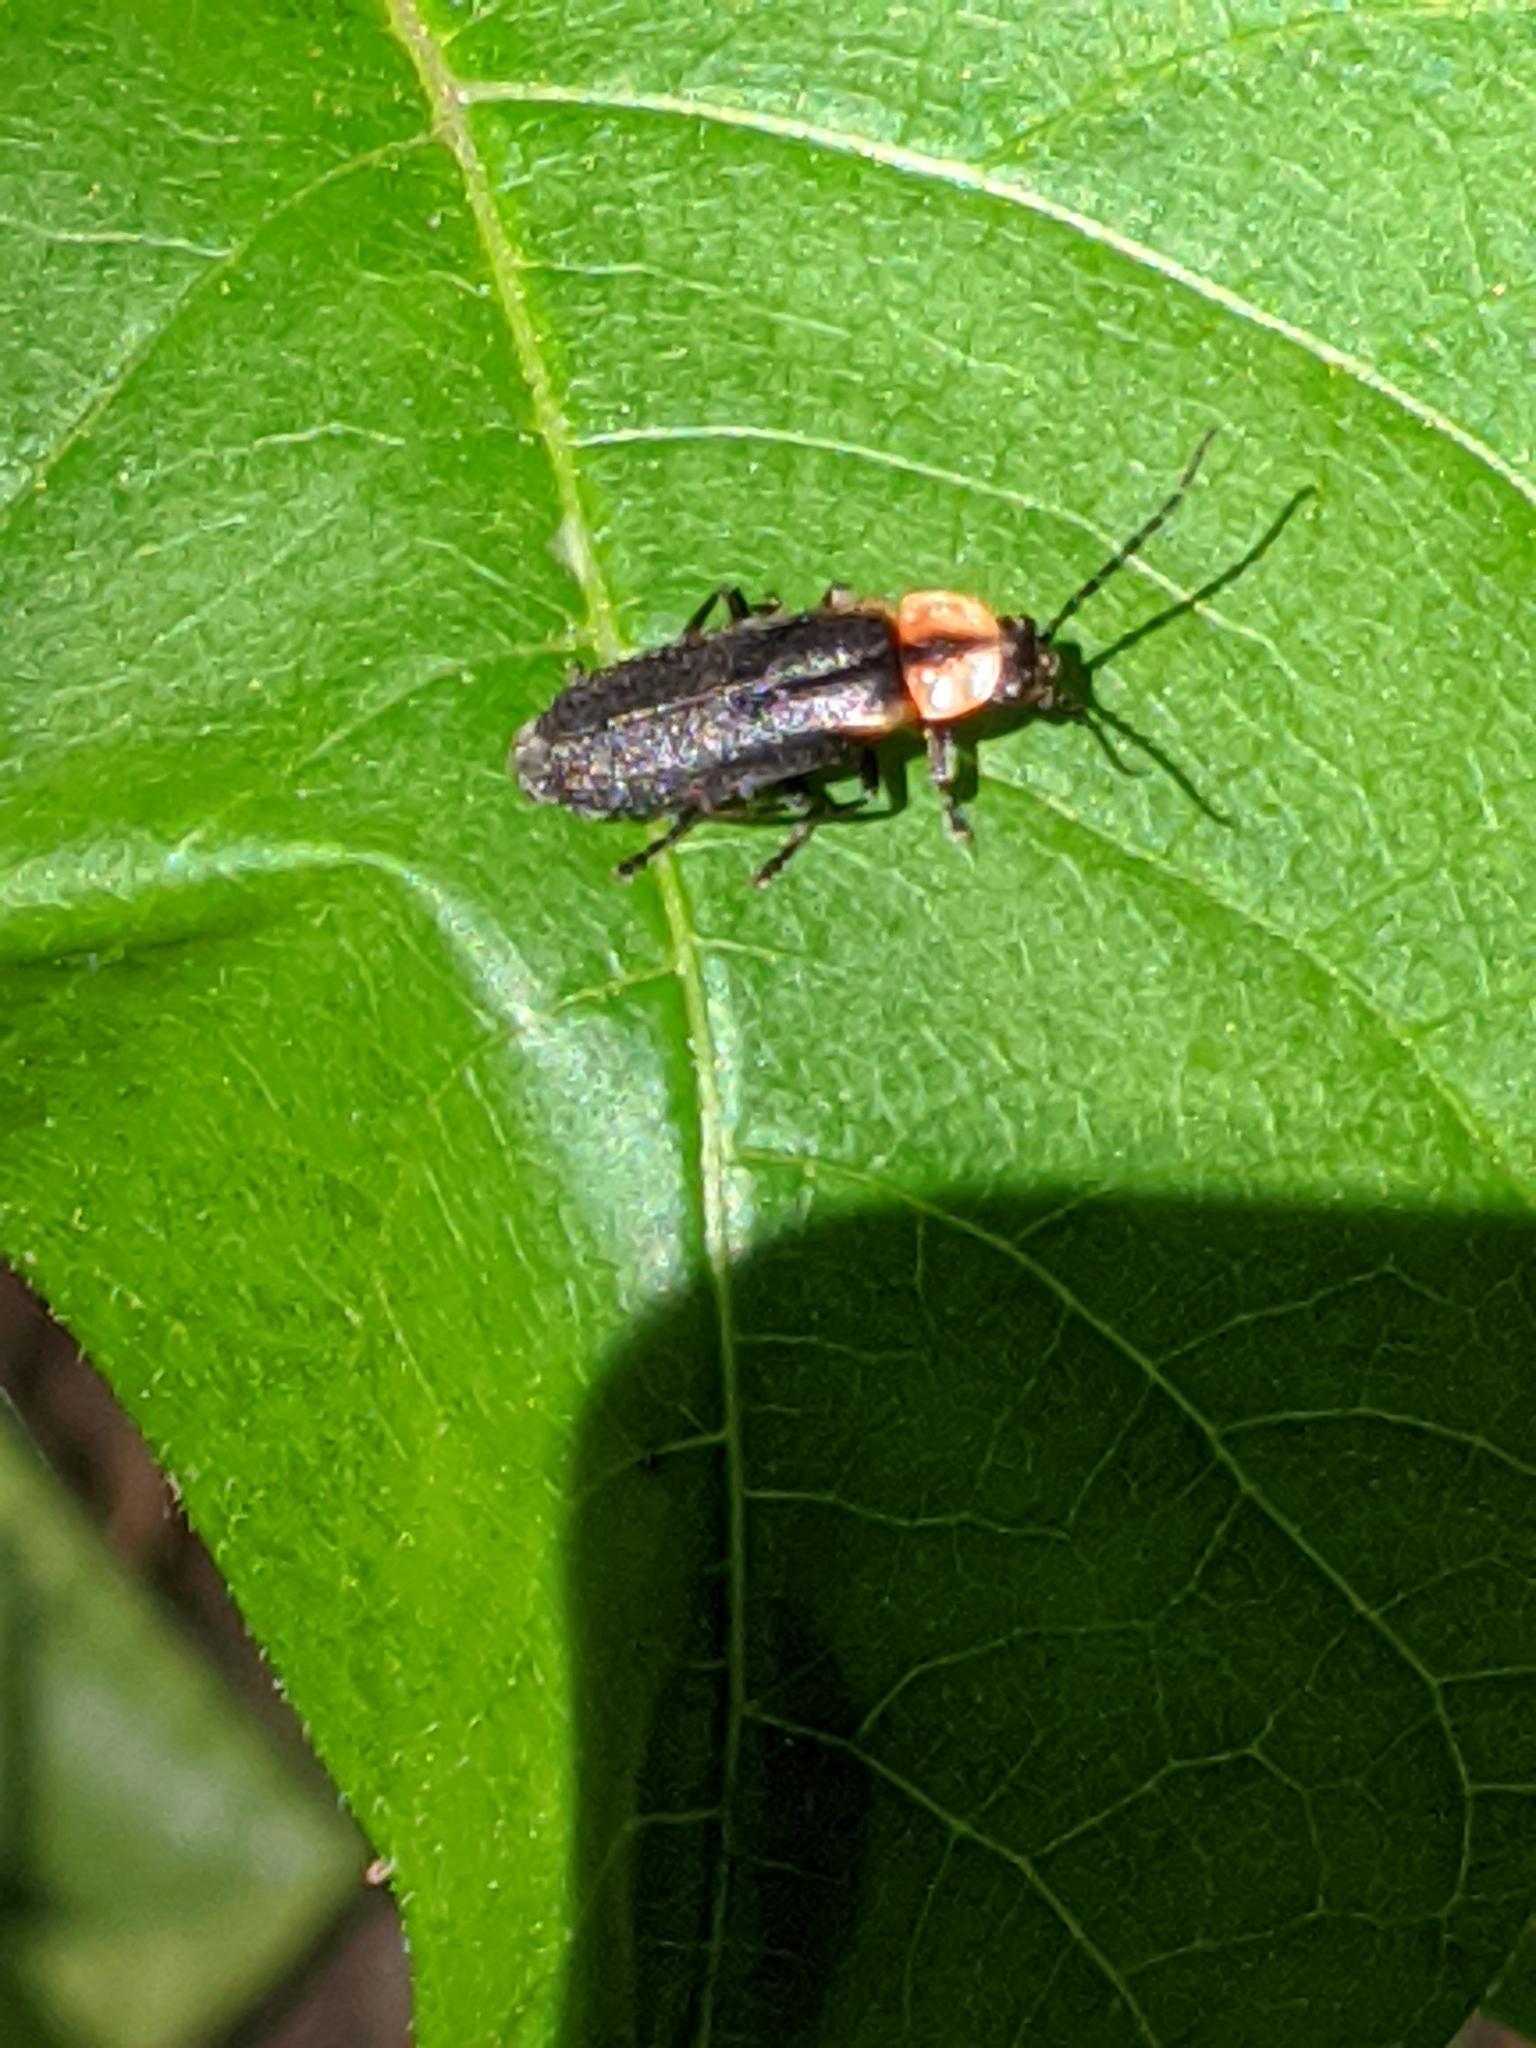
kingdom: Animalia
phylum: Arthropoda
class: Insecta
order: Coleoptera
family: Cantharidae
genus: Discodon
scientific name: Discodon planicolle
